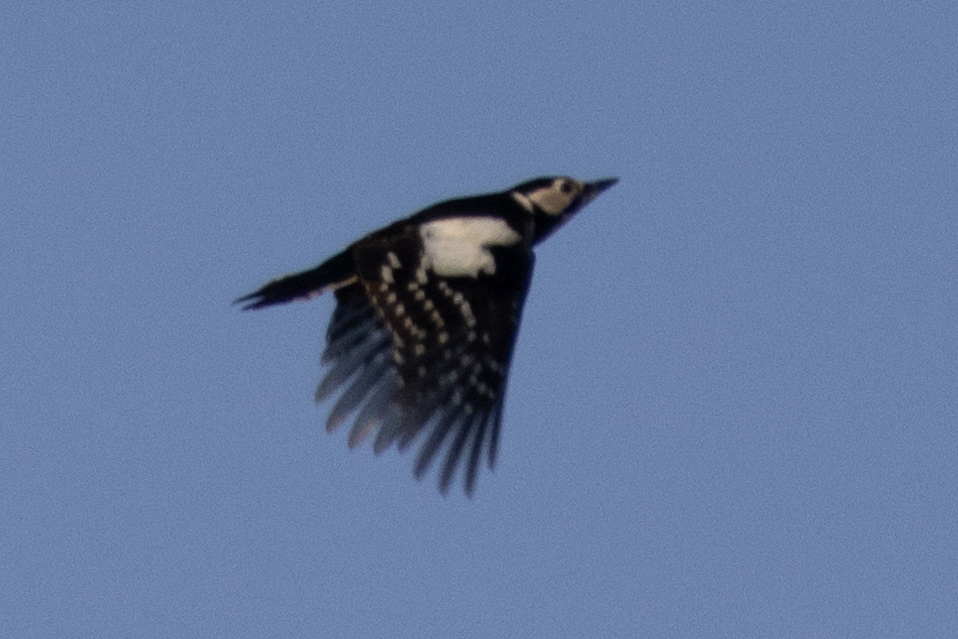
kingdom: Animalia
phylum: Chordata
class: Aves
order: Piciformes
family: Picidae
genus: Dendrocopos
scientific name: Dendrocopos major
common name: Great spotted woodpecker
